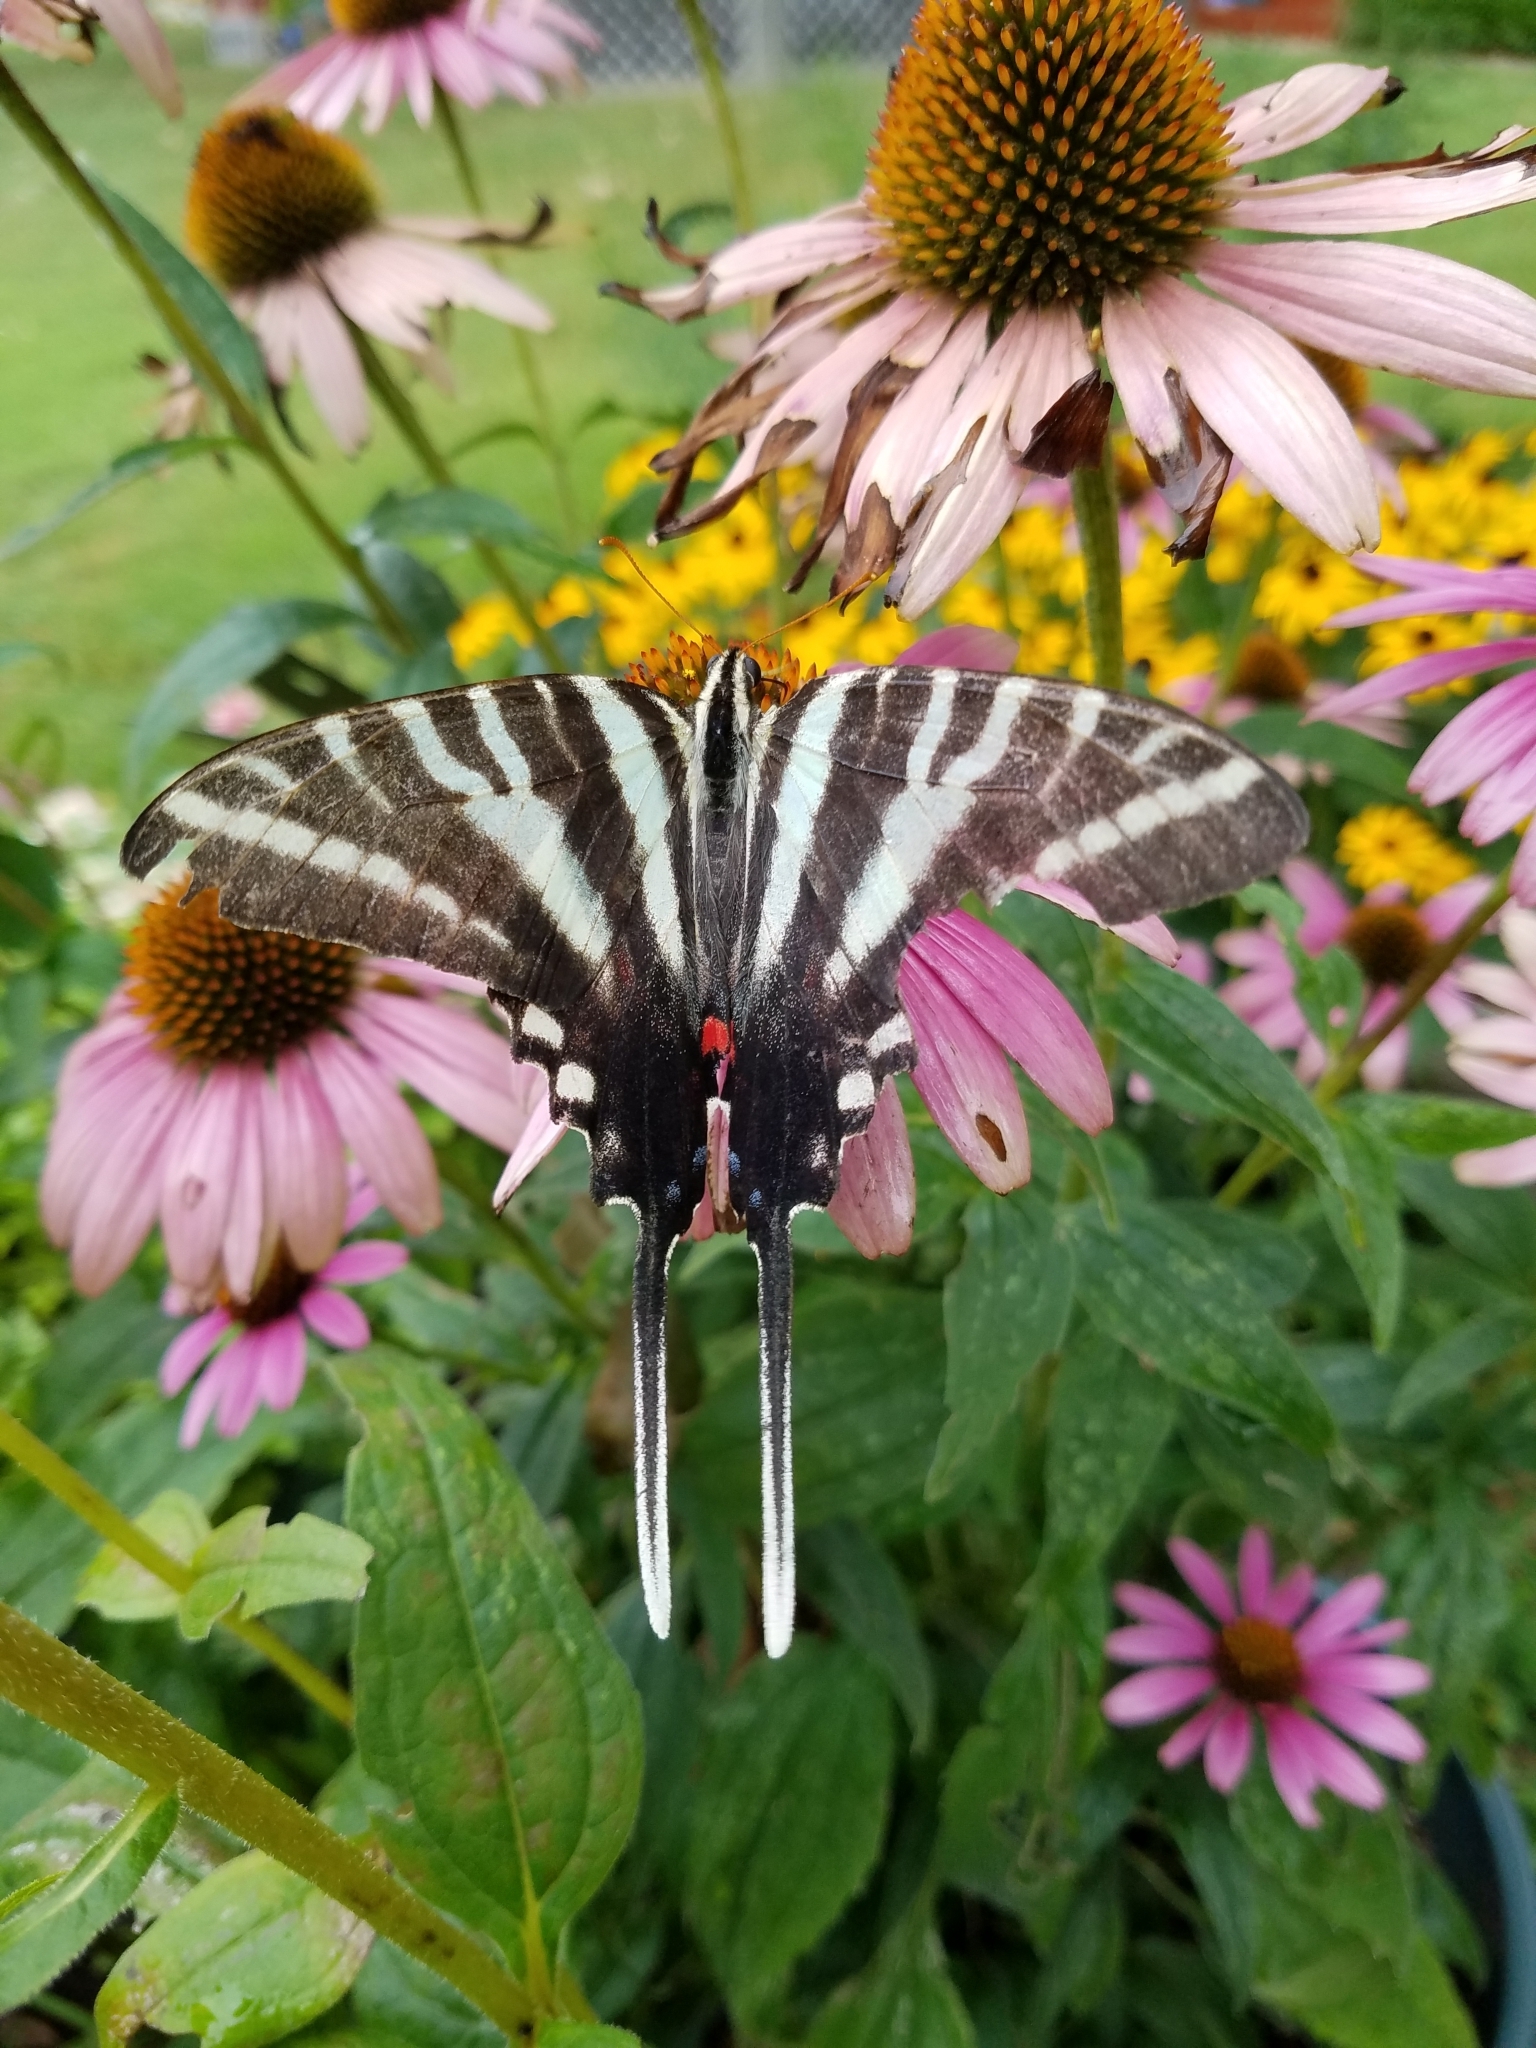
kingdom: Animalia
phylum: Arthropoda
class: Insecta
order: Lepidoptera
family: Papilionidae
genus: Protographium
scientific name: Protographium marcellus
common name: Zebra swallowtail
